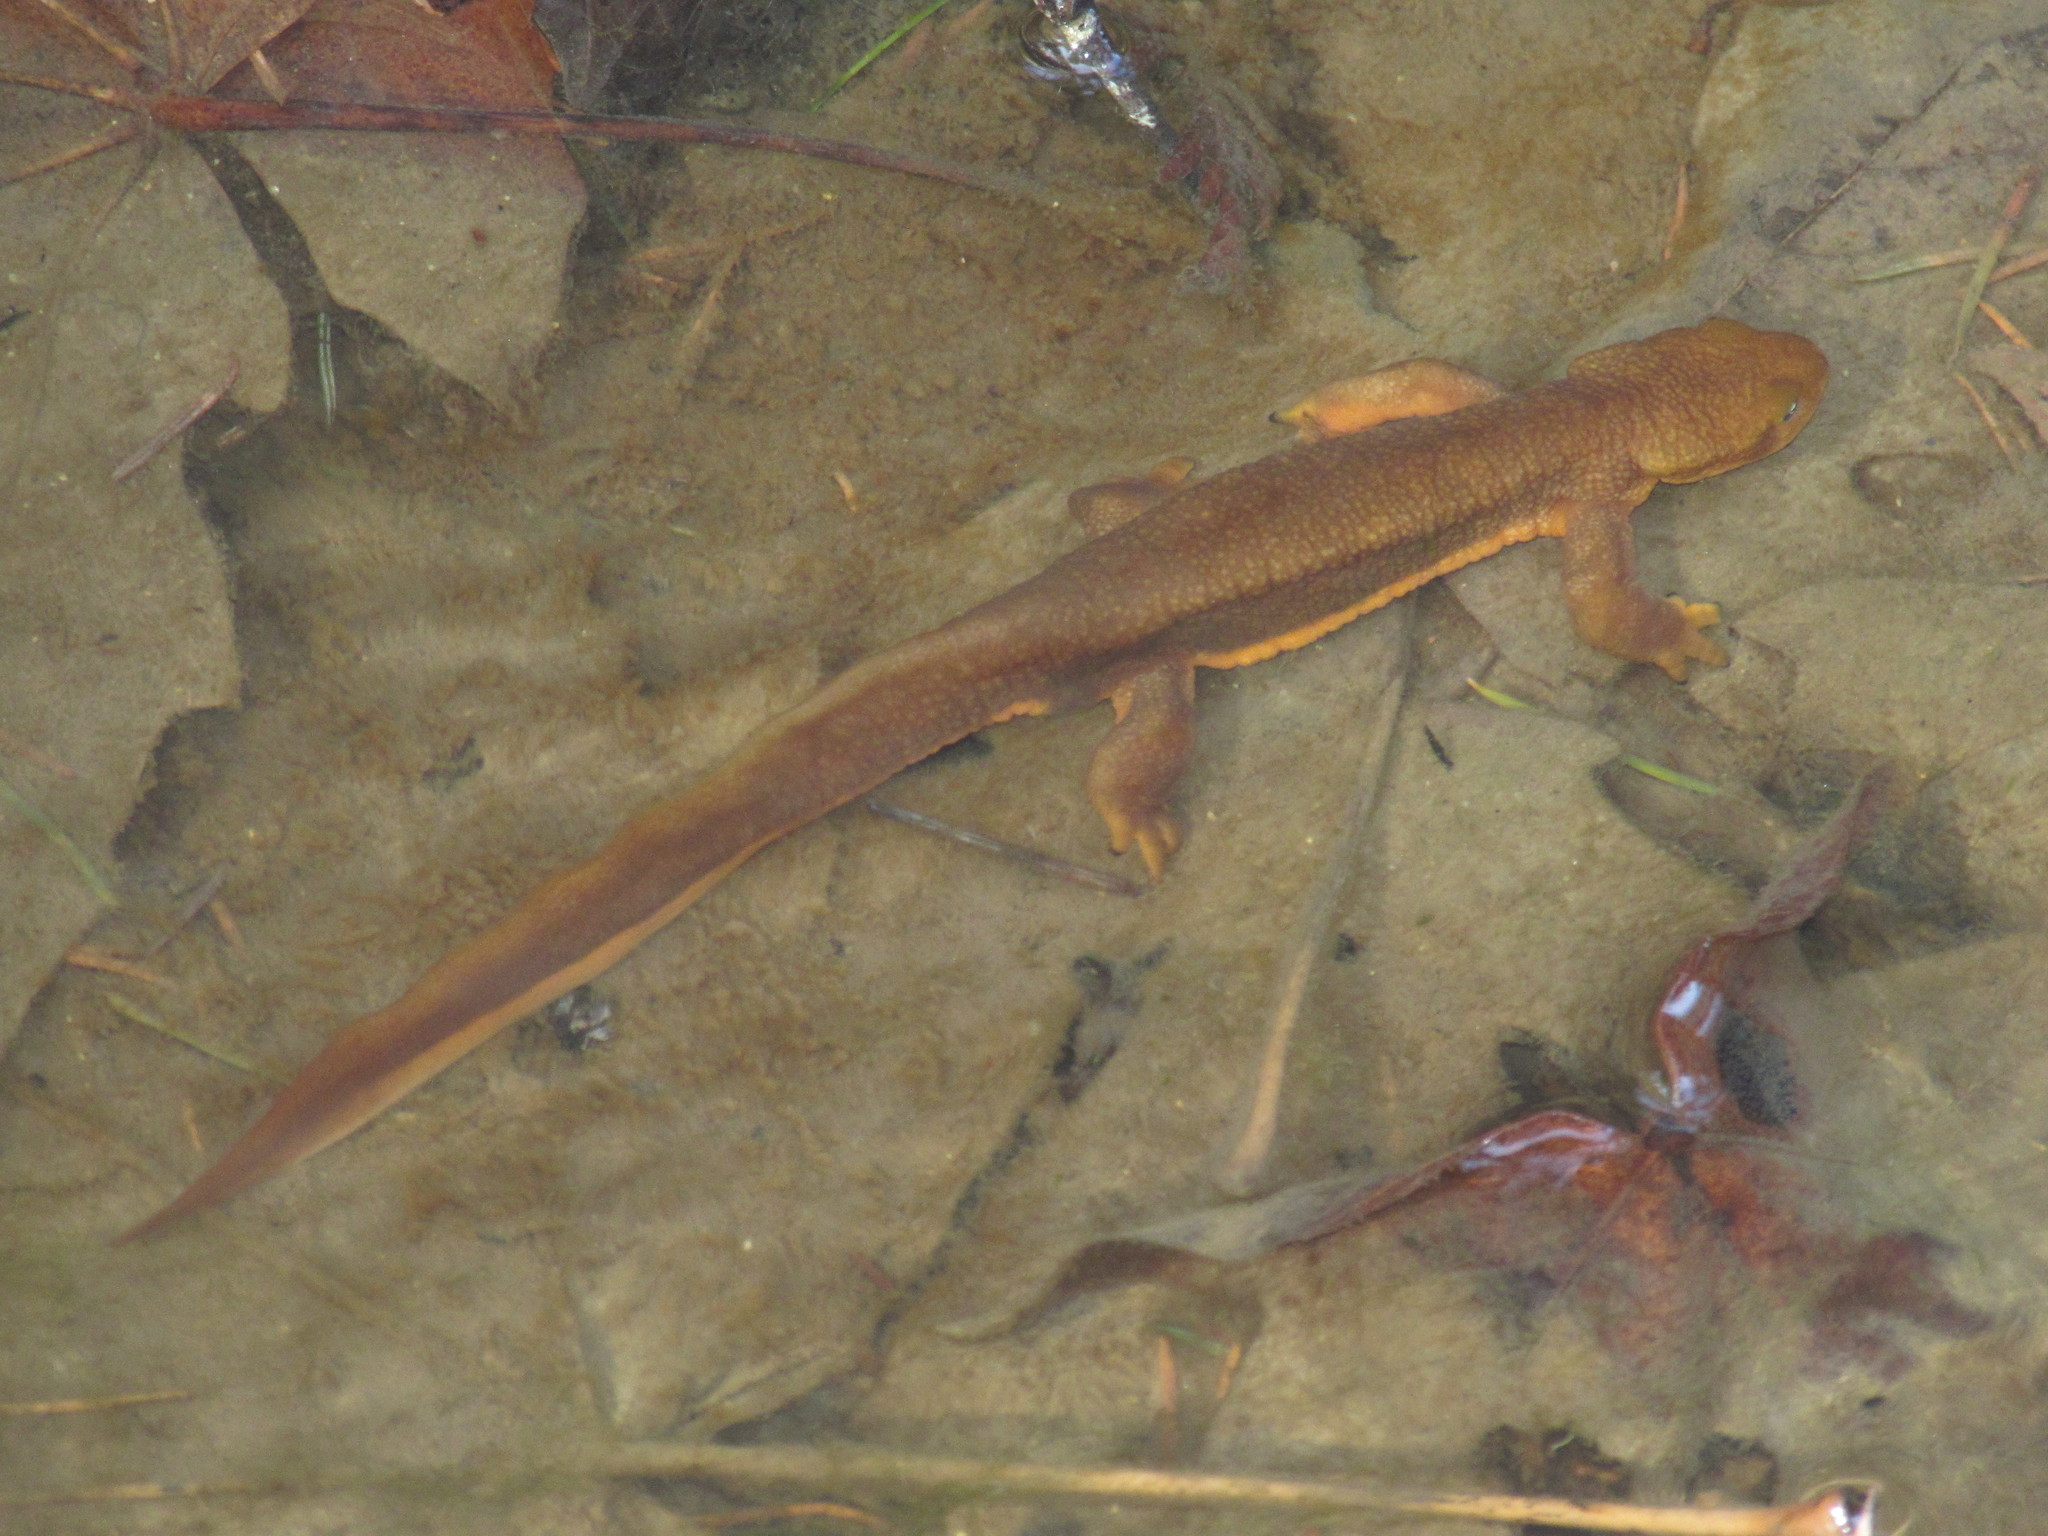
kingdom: Animalia
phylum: Chordata
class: Amphibia
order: Caudata
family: Salamandridae
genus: Taricha
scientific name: Taricha granulosa
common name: Roughskin newt
